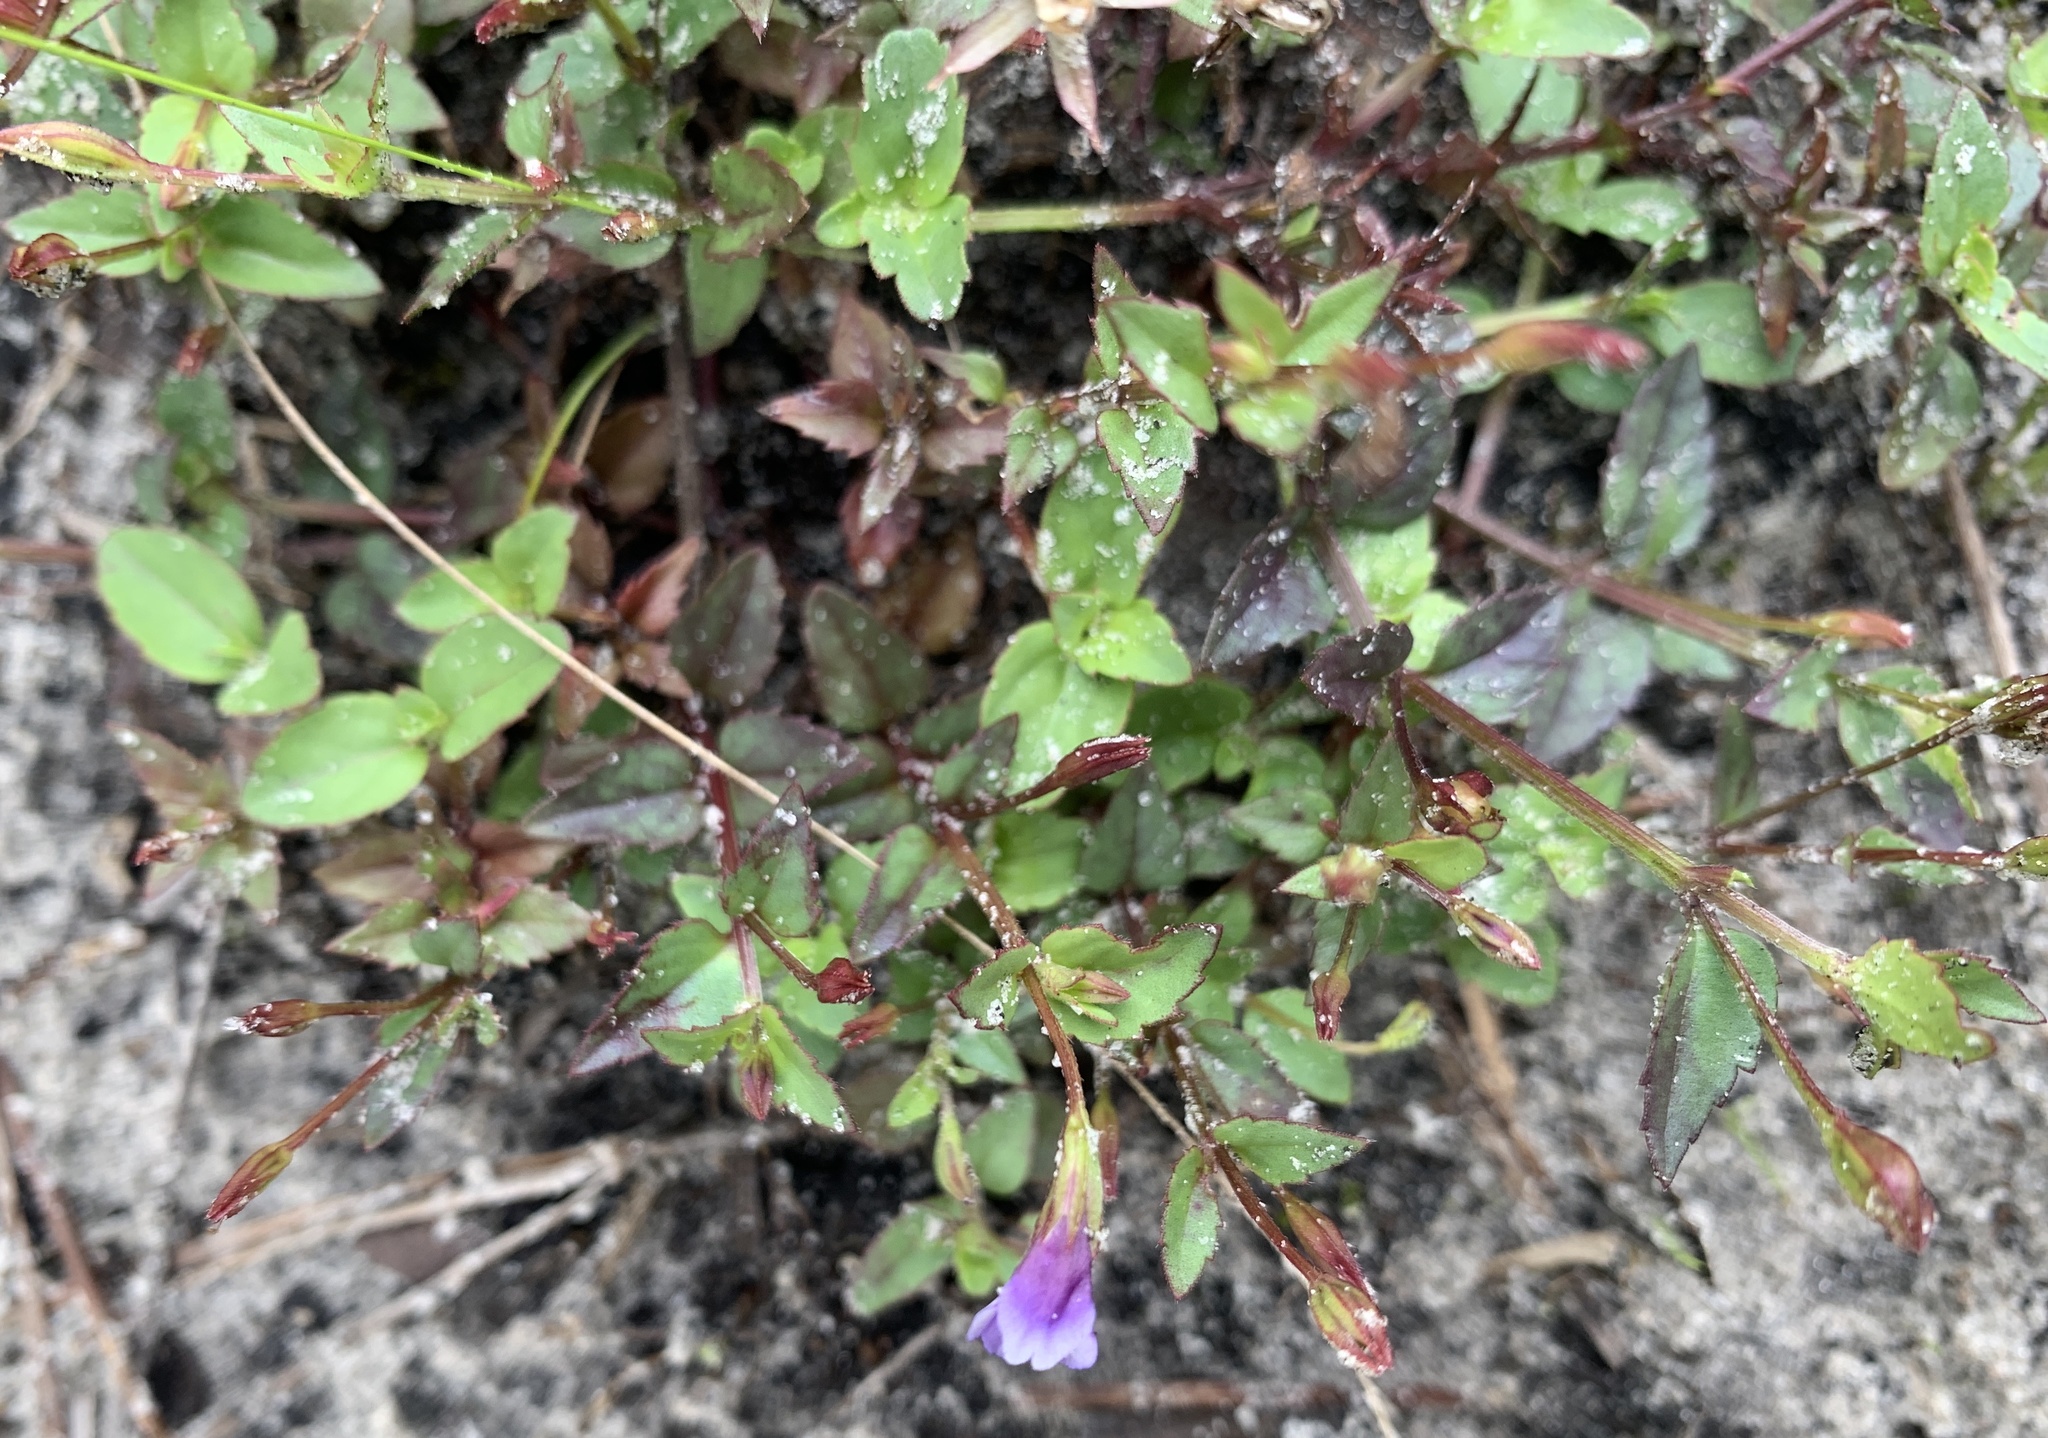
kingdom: Plantae
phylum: Tracheophyta
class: Magnoliopsida
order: Lamiales
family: Linderniaceae
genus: Torenia
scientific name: Torenia crustacea
